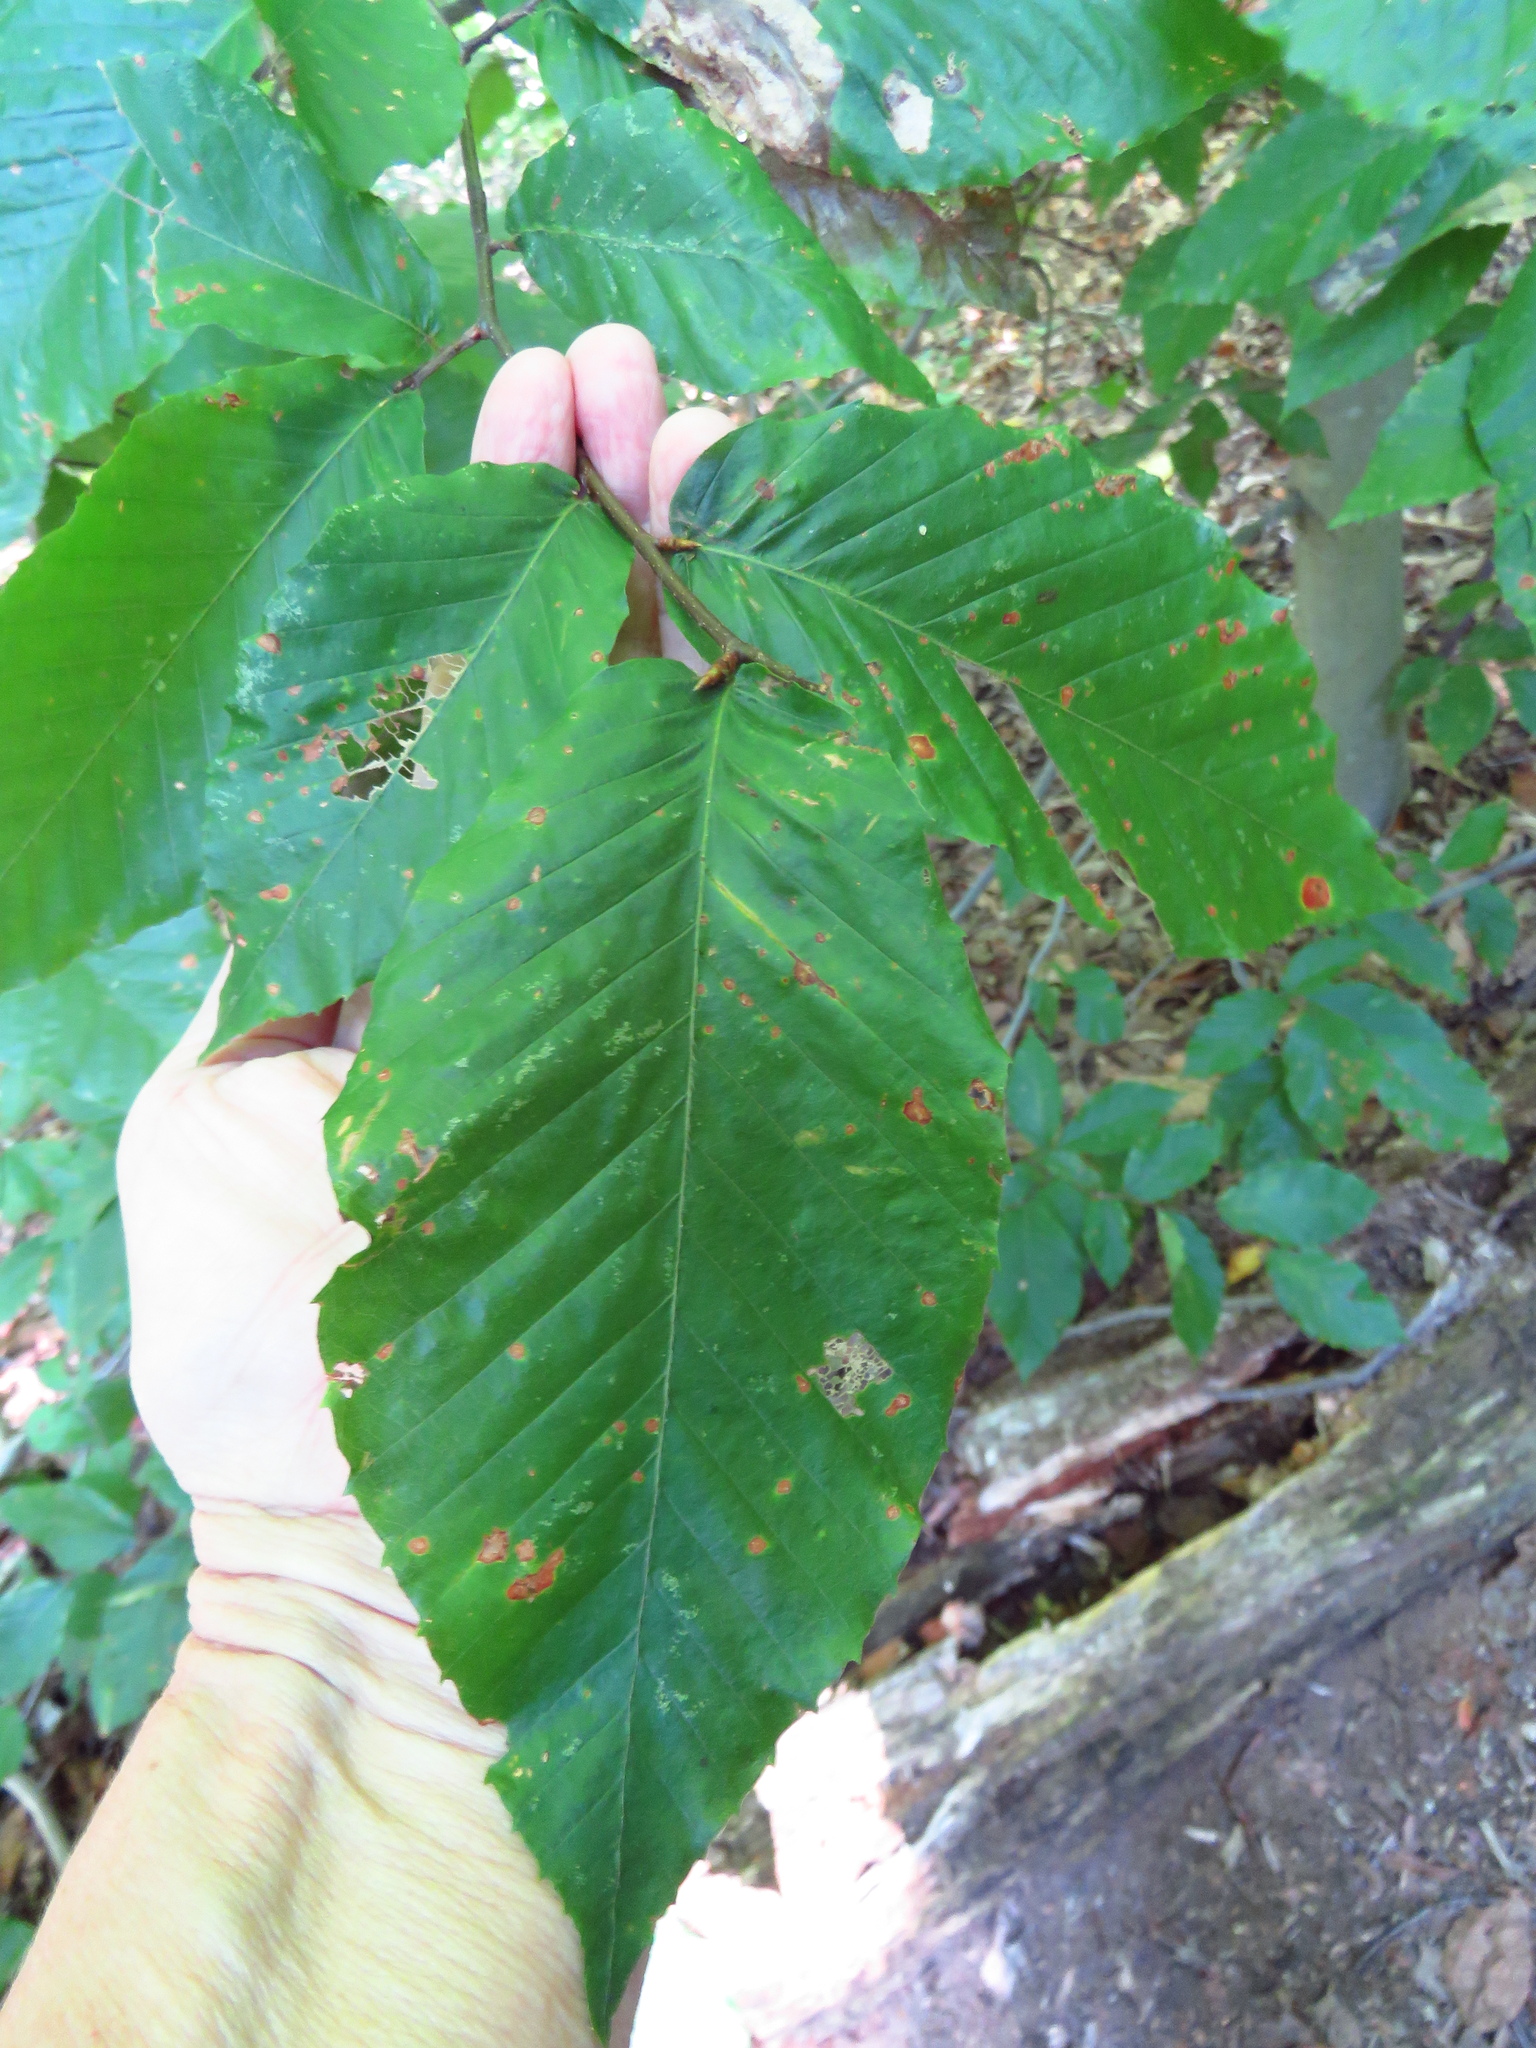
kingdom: Plantae
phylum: Tracheophyta
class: Magnoliopsida
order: Fagales
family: Fagaceae
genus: Fagus
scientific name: Fagus grandifolia
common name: American beech
